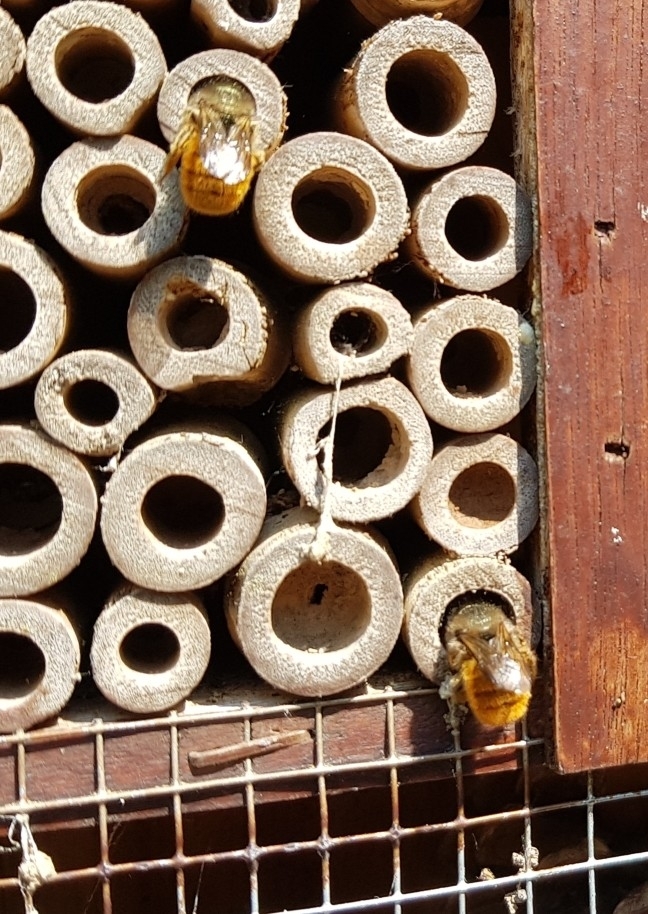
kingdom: Animalia
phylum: Arthropoda
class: Insecta
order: Hymenoptera
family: Megachilidae
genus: Osmia
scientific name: Osmia bicornis
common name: Red mason bee
